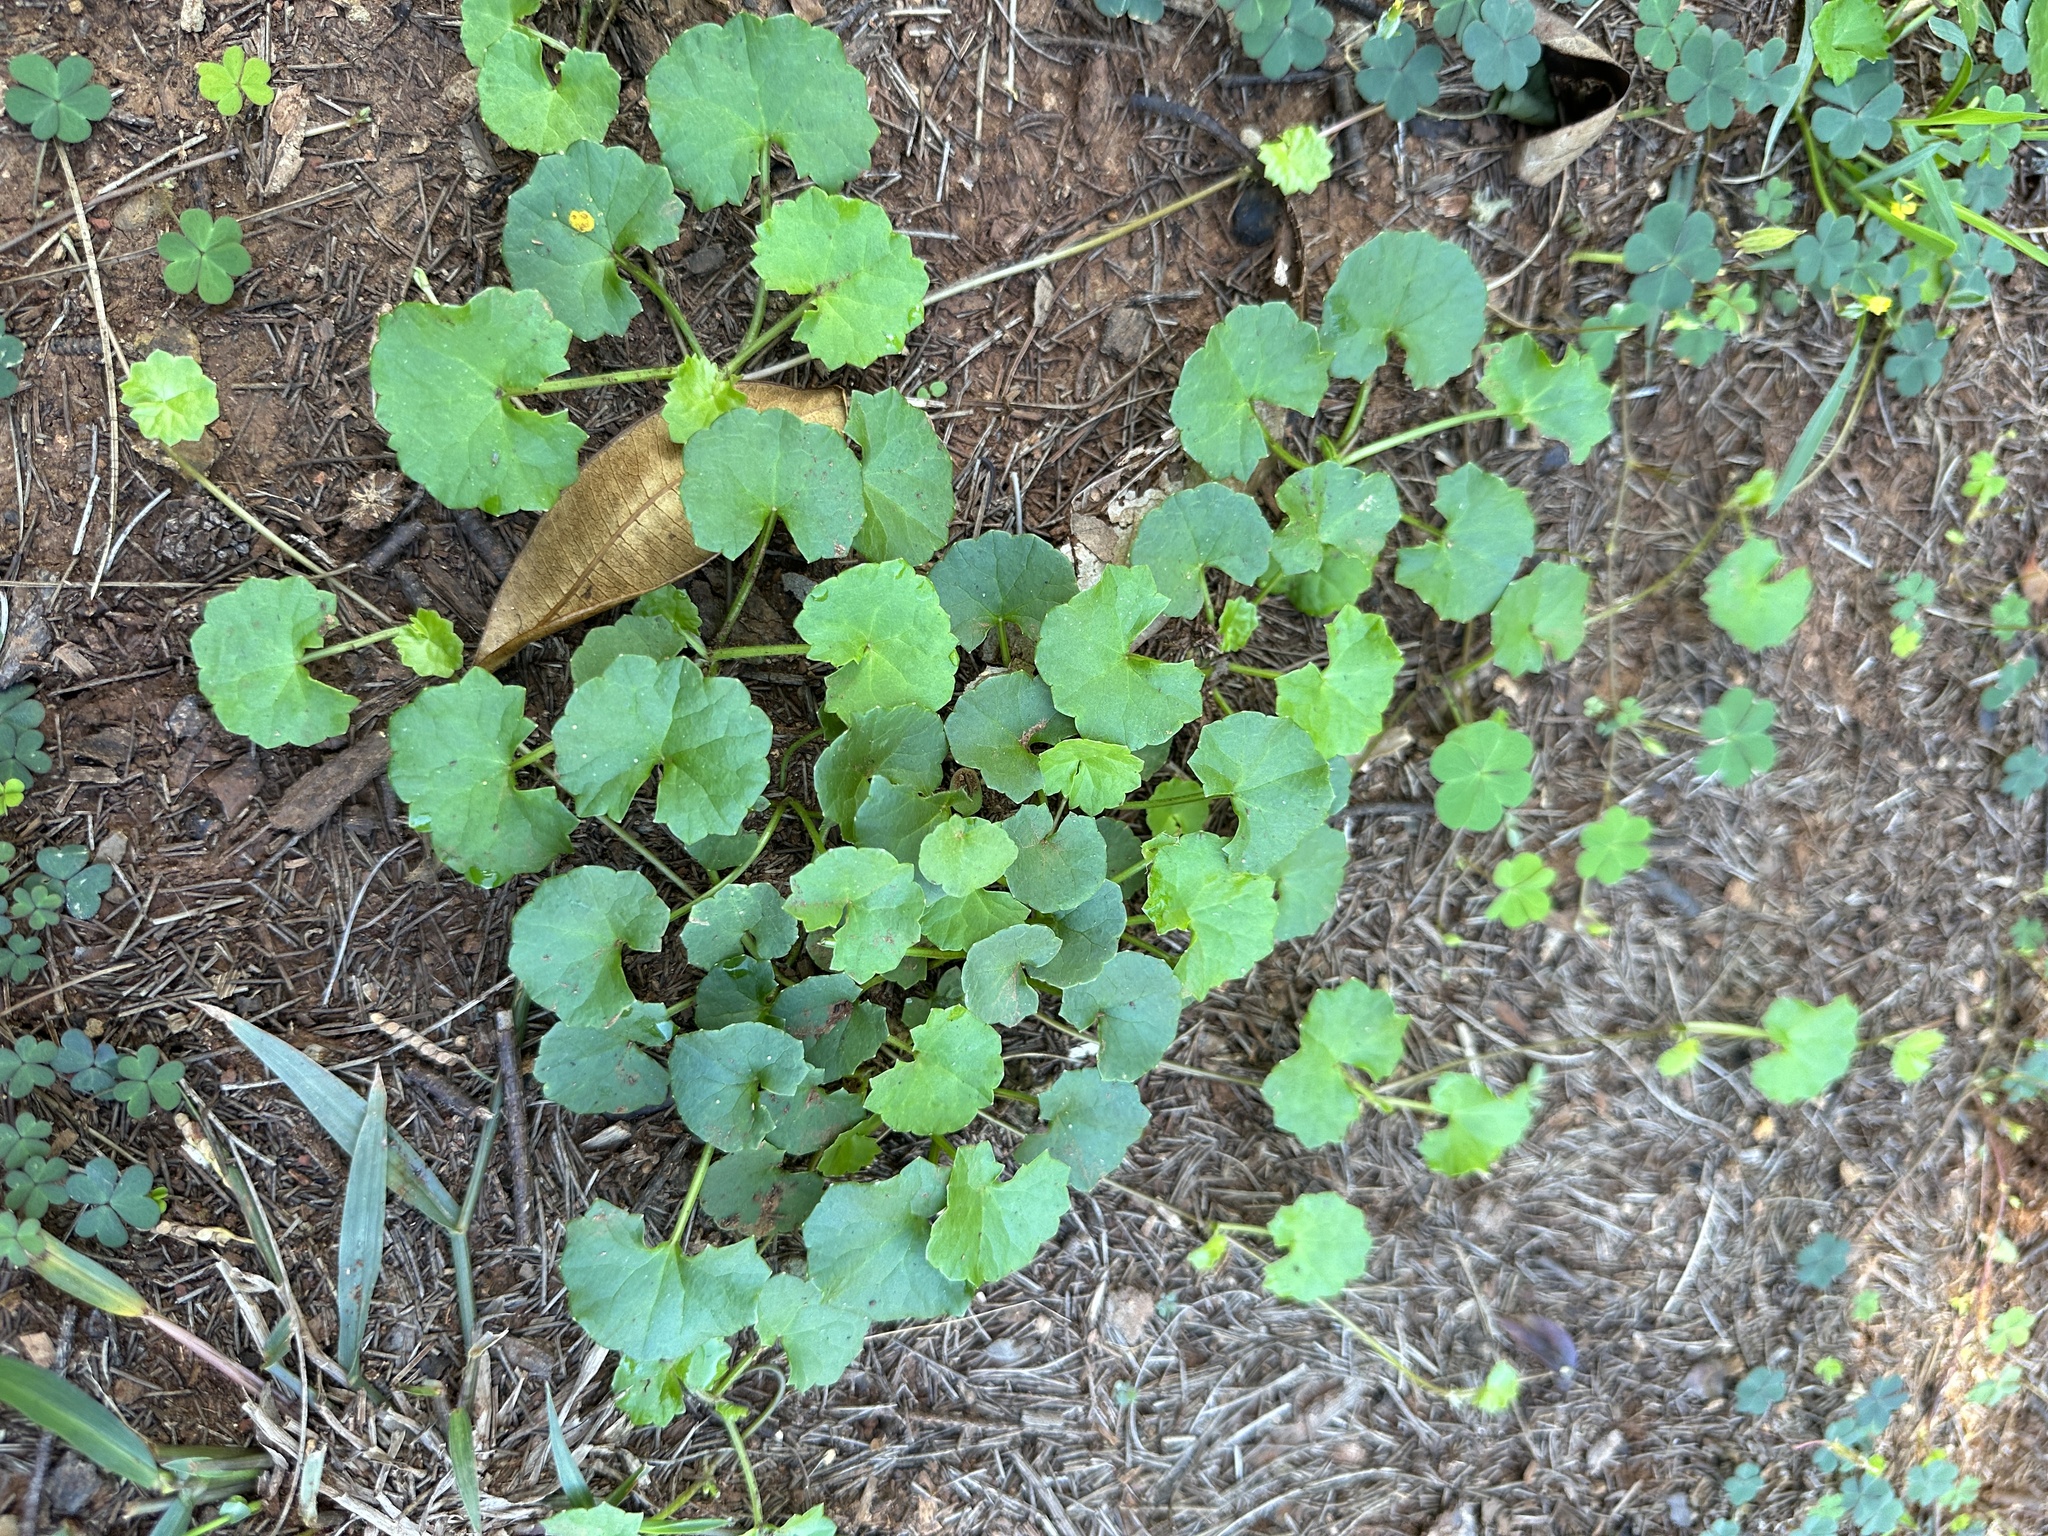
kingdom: Plantae
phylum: Tracheophyta
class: Magnoliopsida
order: Apiales
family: Apiaceae
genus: Centella
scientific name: Centella asiatica
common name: Spadeleaf
